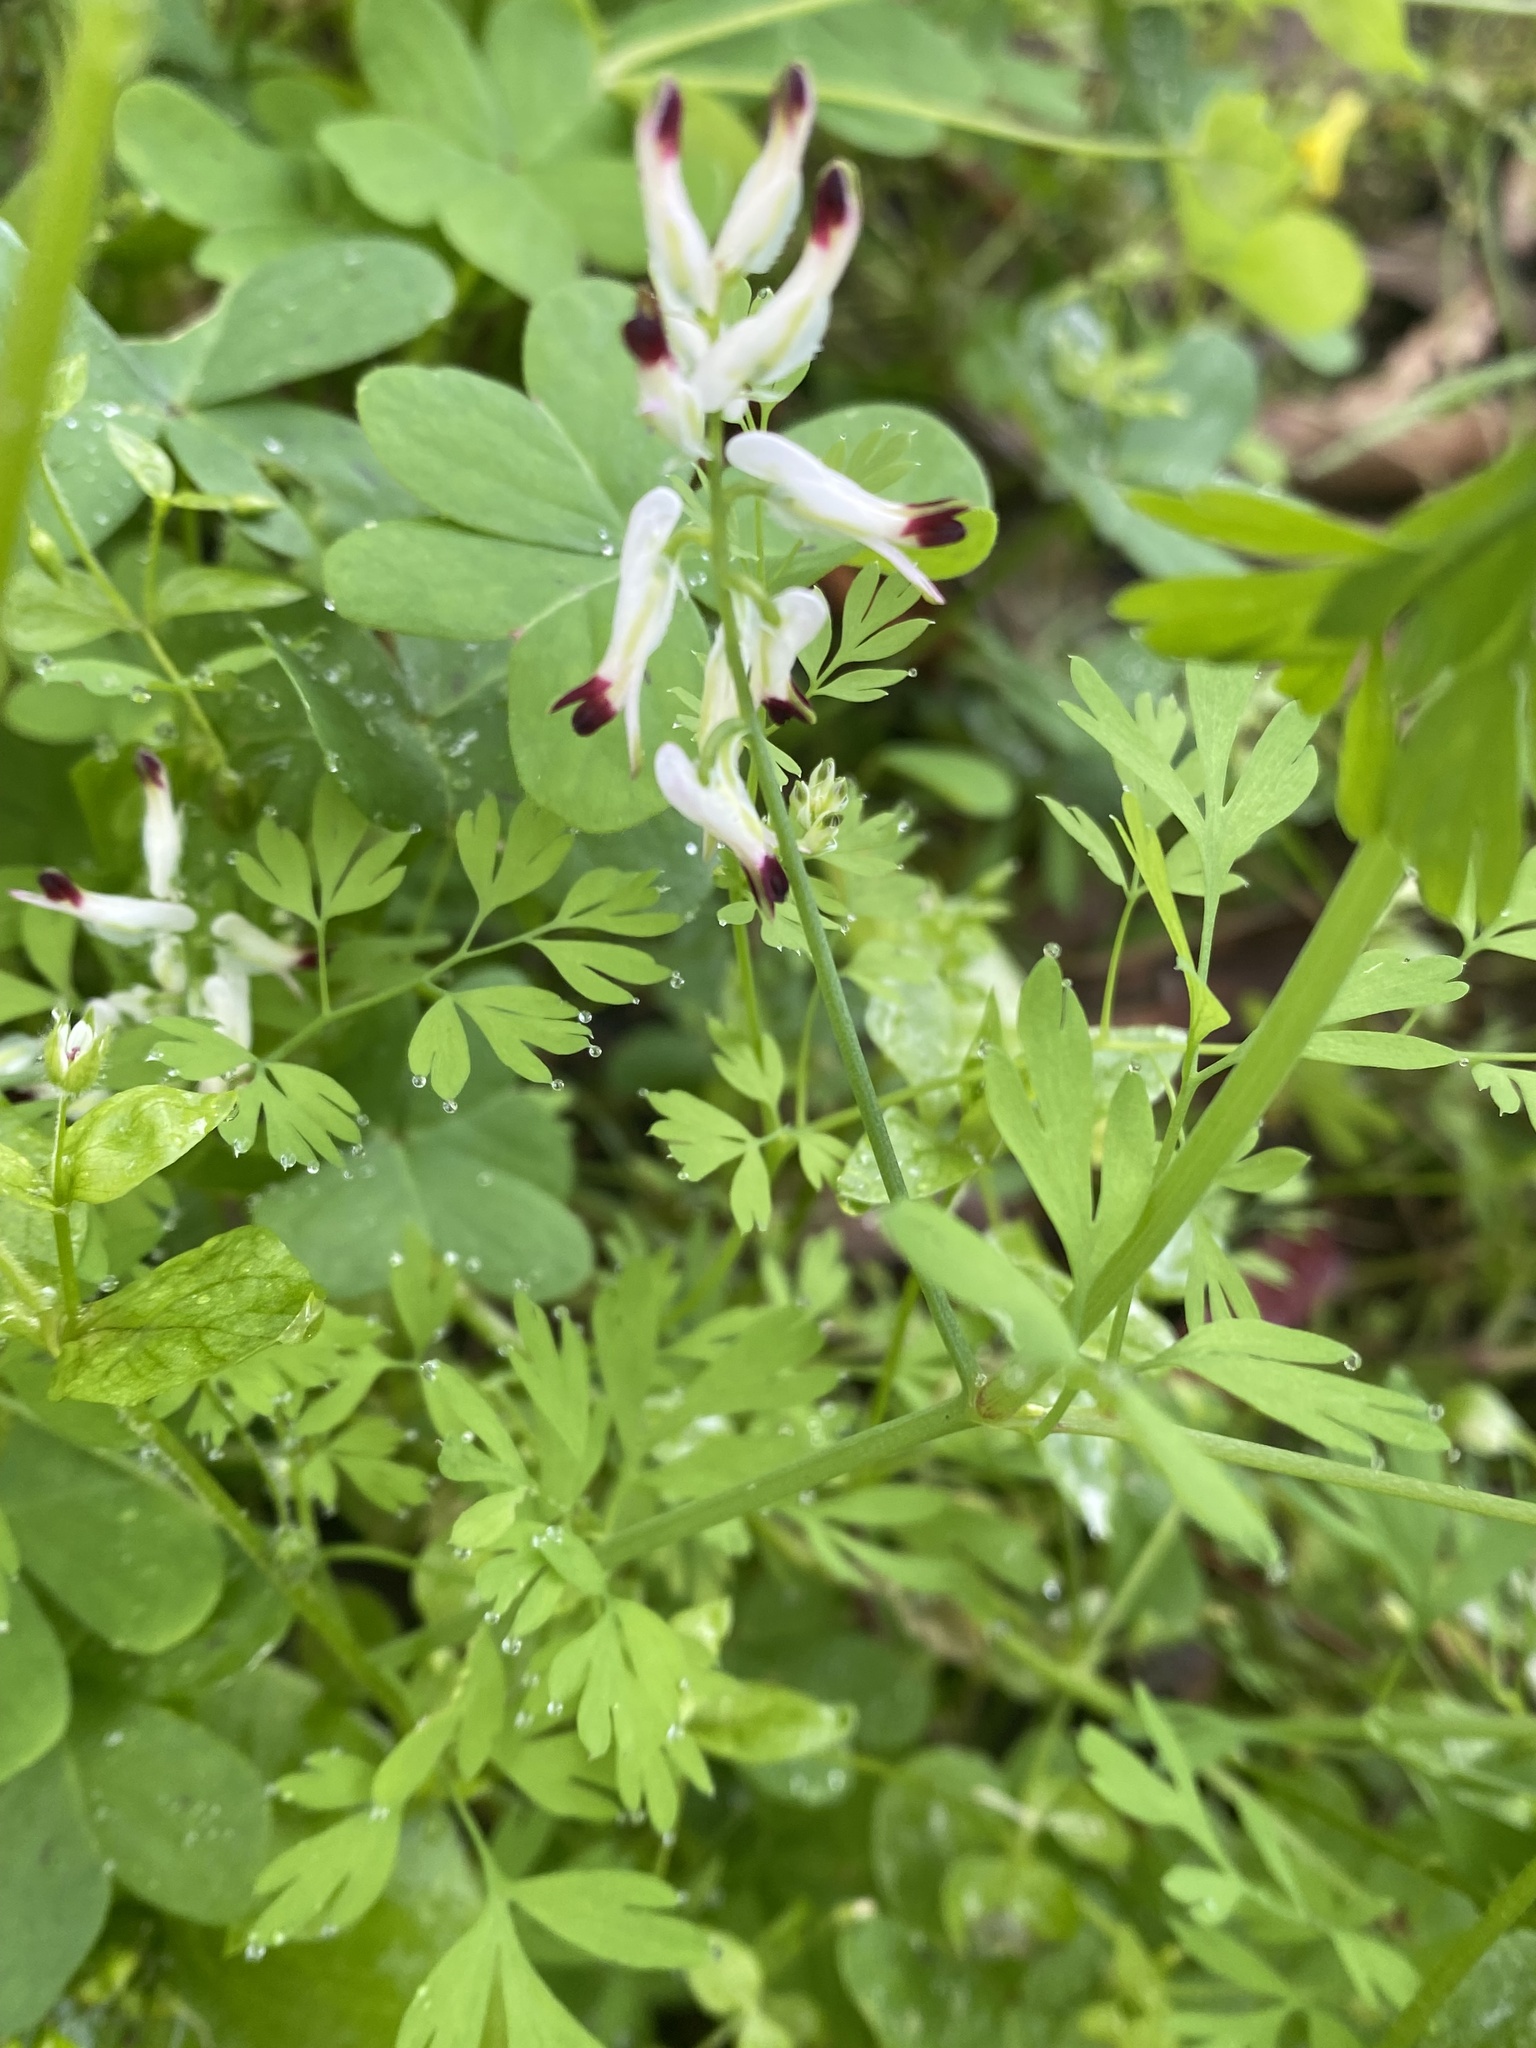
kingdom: Plantae
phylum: Tracheophyta
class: Magnoliopsida
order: Ranunculales
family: Papaveraceae
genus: Fumaria
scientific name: Fumaria capreolata
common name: White ramping-fumitory
